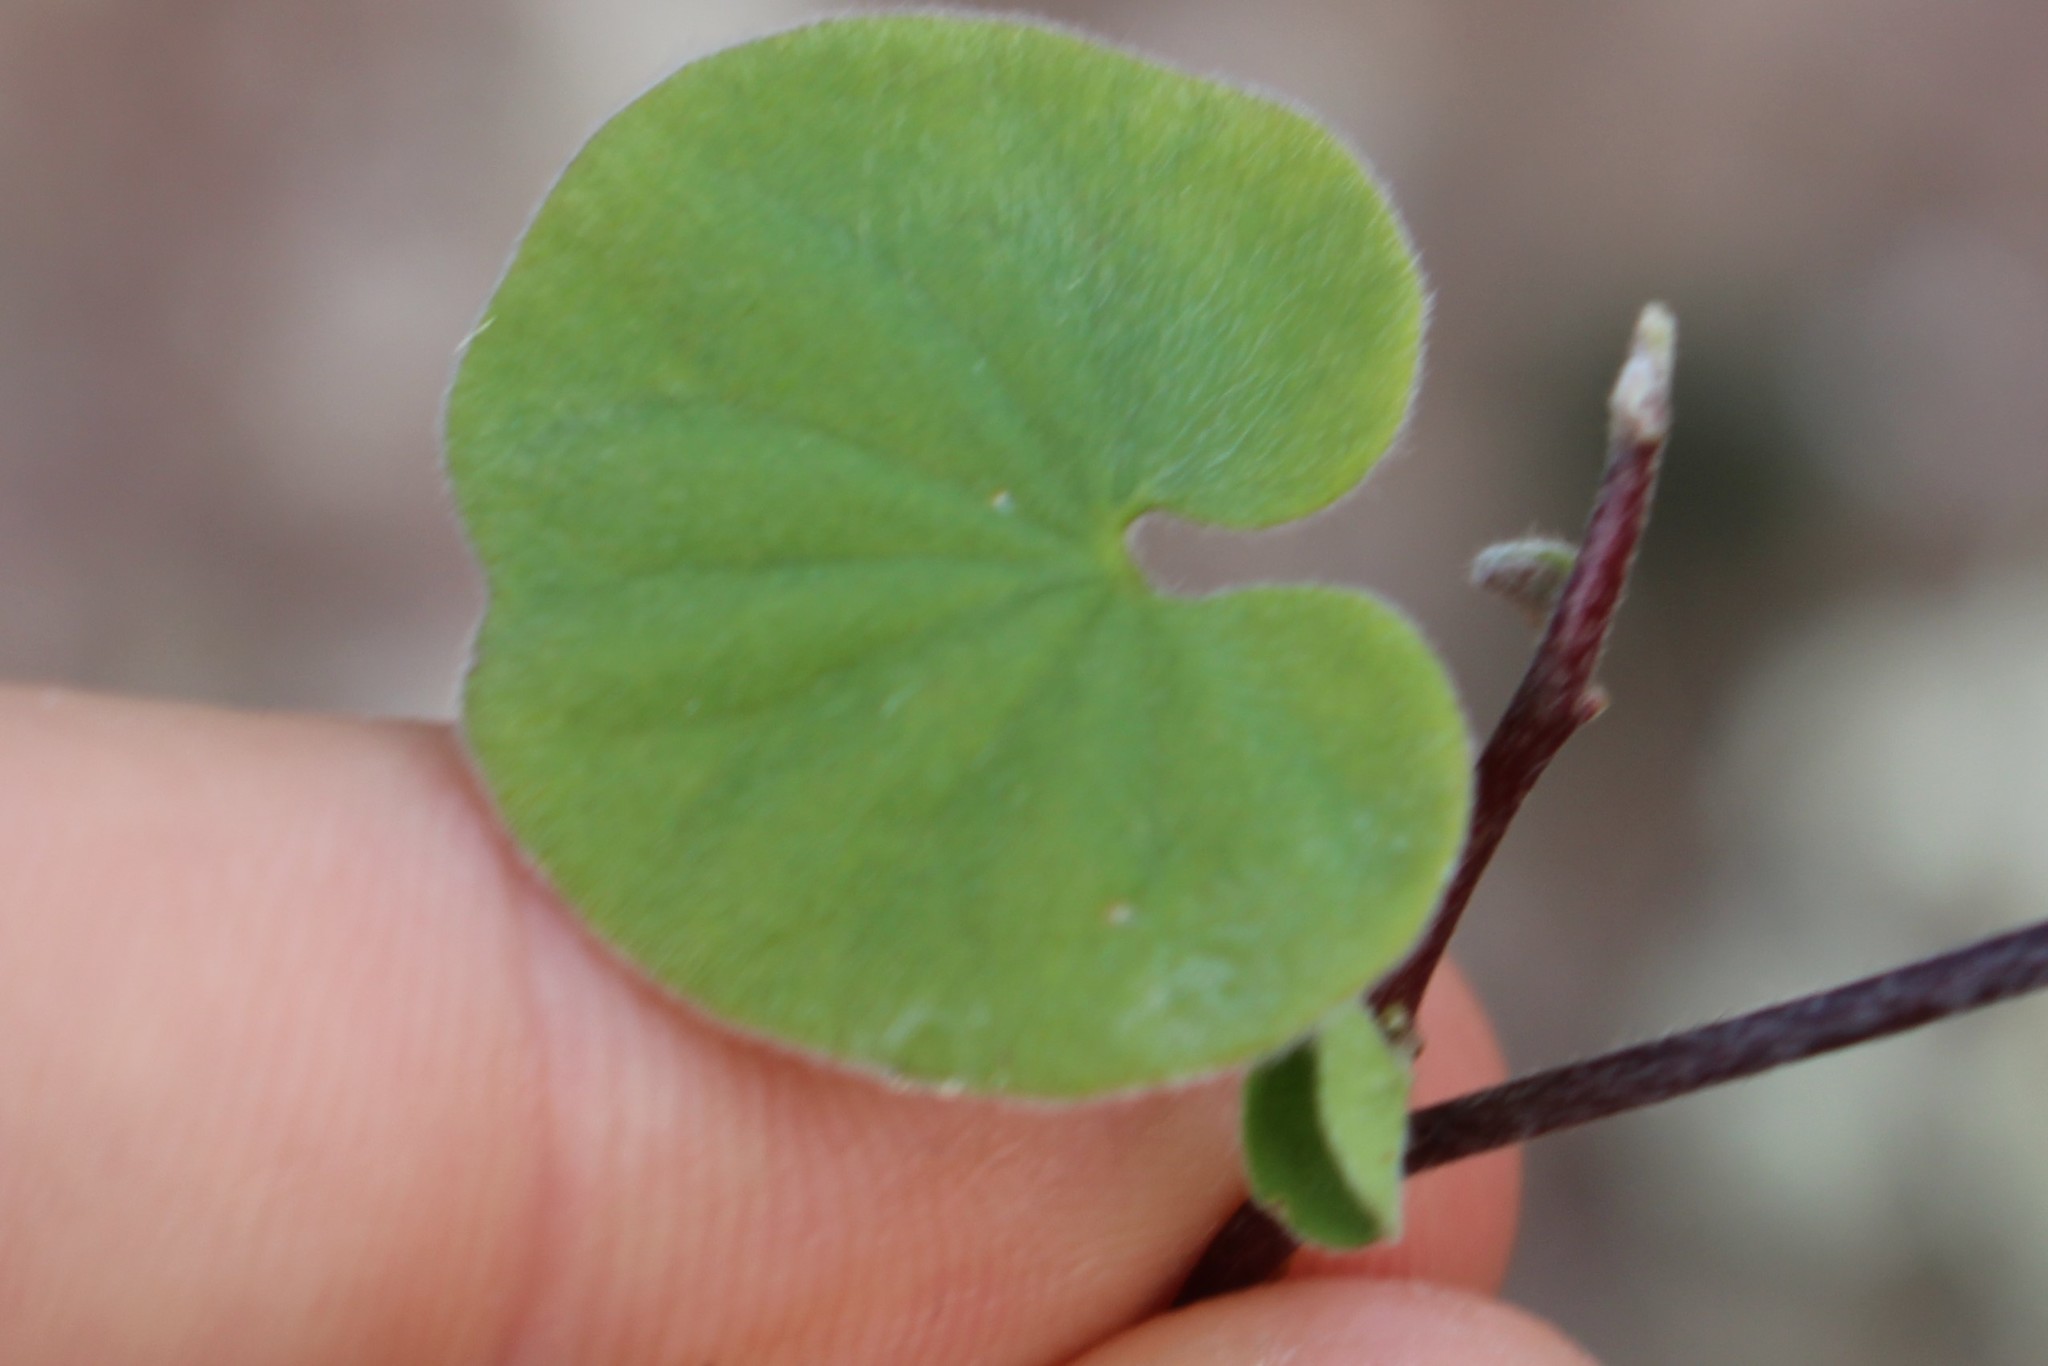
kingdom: Plantae
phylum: Tracheophyta
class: Magnoliopsida
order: Solanales
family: Convolvulaceae
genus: Dichondra
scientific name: Dichondra repens
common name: Kidneyweed
